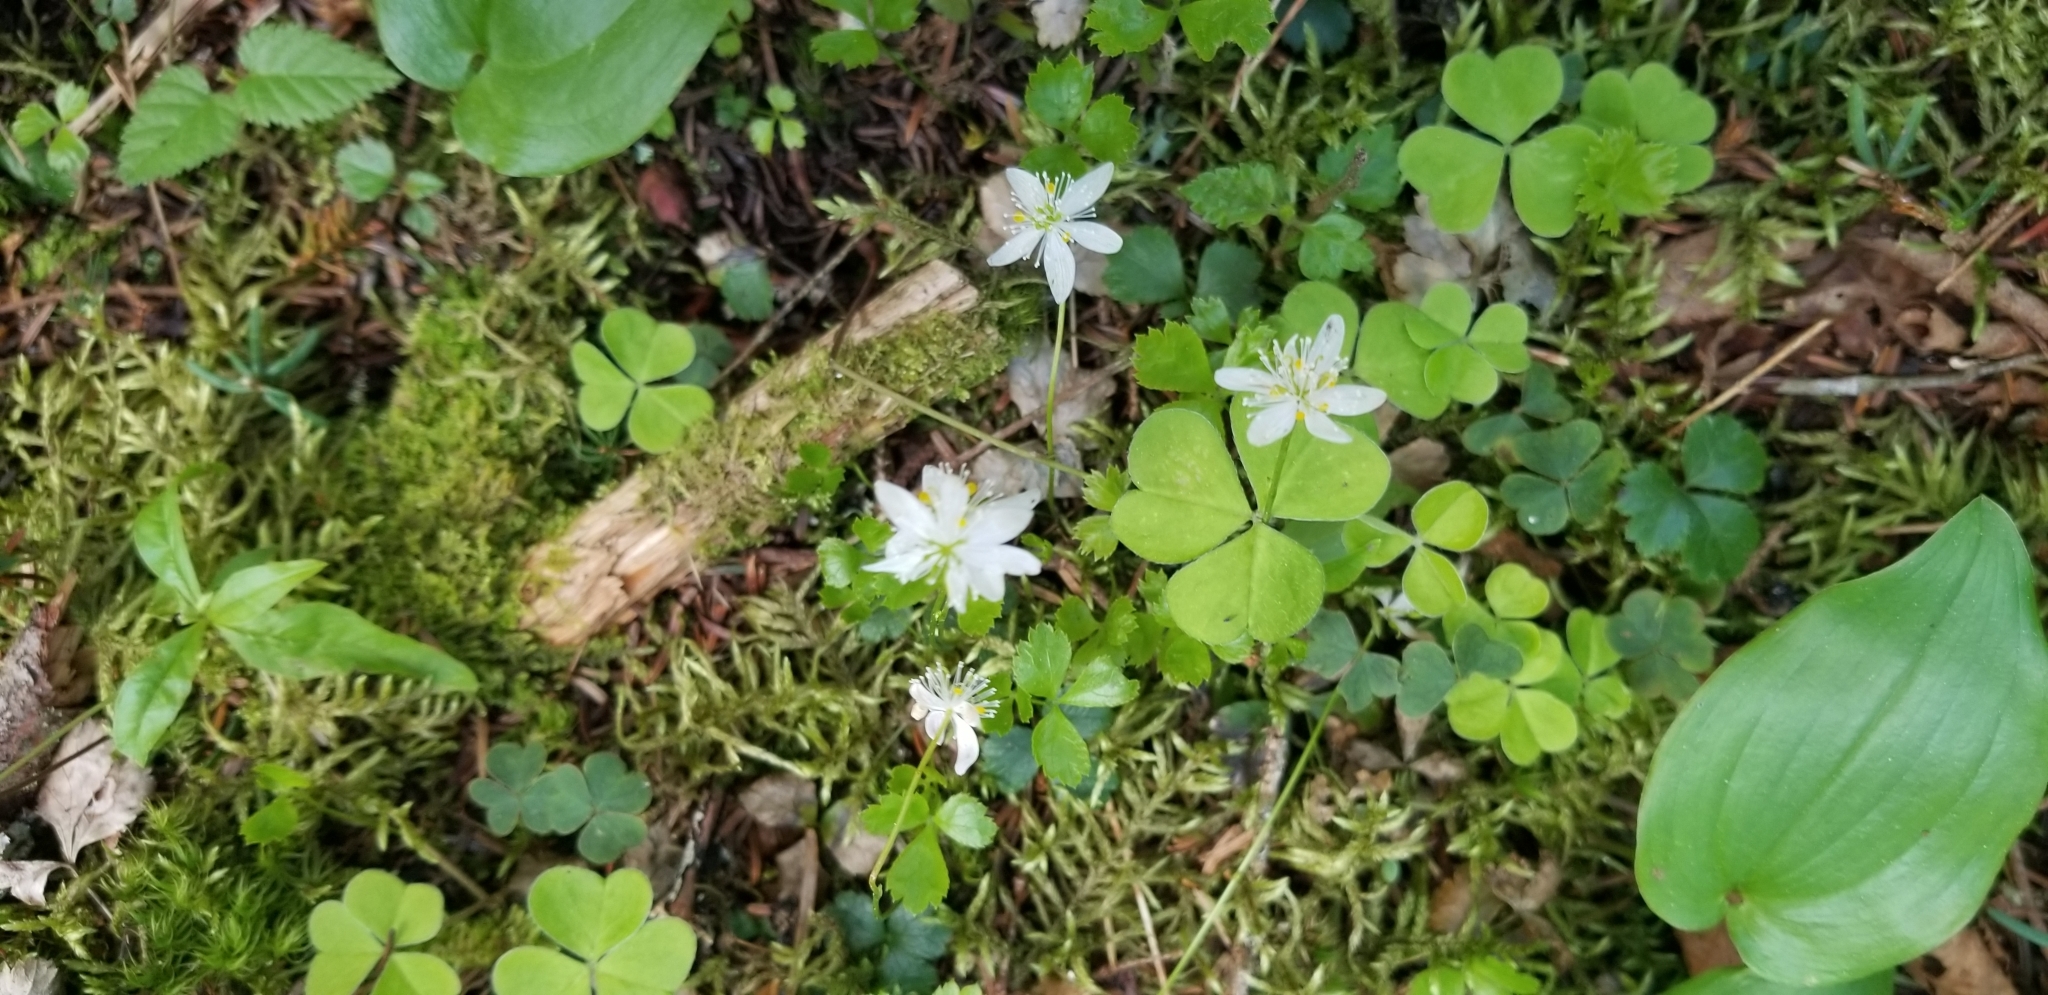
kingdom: Plantae
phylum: Tracheophyta
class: Magnoliopsida
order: Ranunculales
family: Ranunculaceae
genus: Coptis
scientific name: Coptis trifolia
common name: Canker-root
